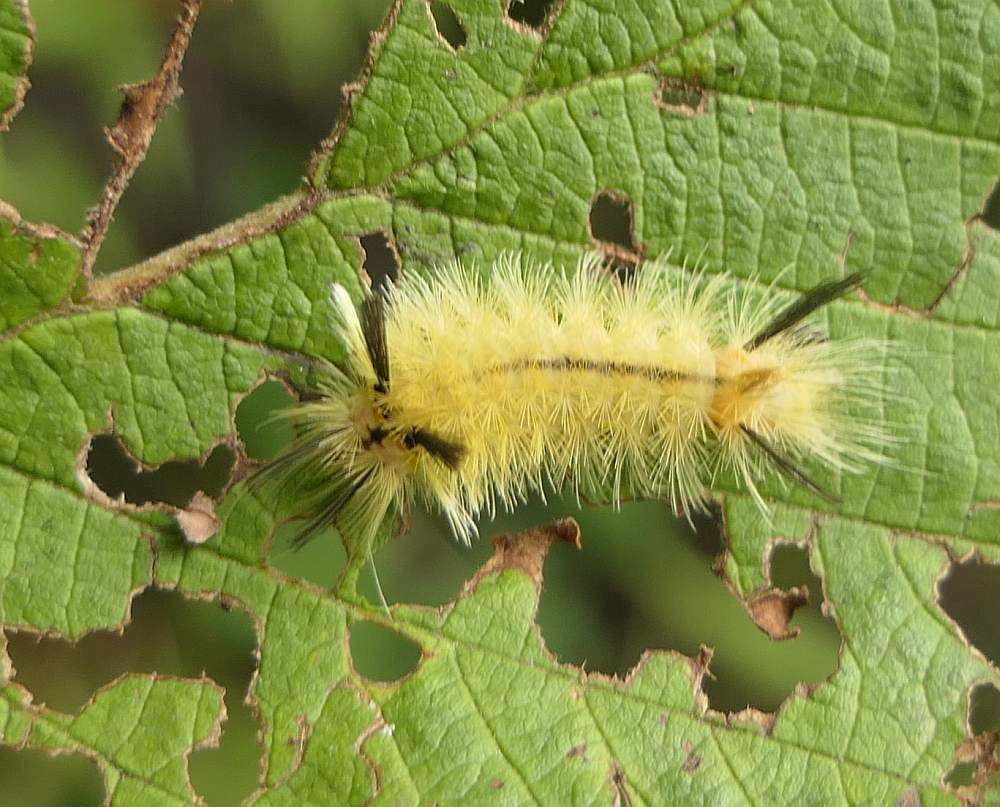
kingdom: Animalia
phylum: Arthropoda
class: Insecta
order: Lepidoptera
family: Erebidae
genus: Halysidota
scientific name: Halysidota tessellaris
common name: Banded tussock moth
